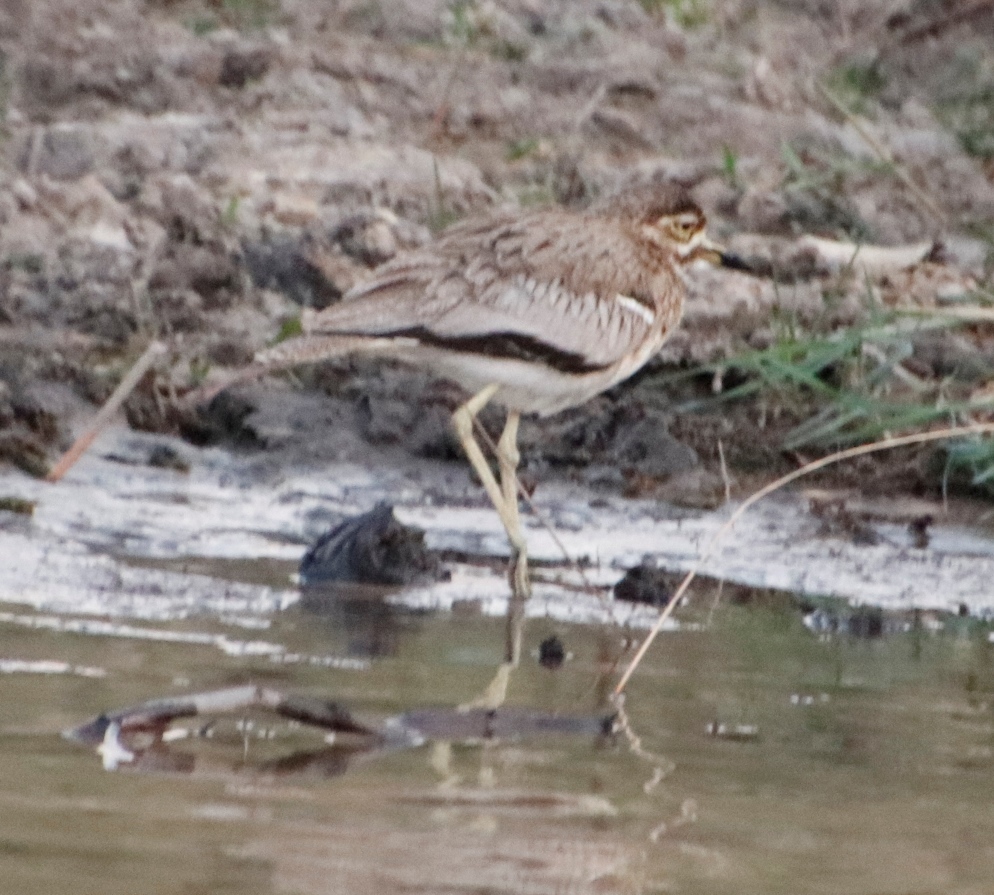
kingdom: Animalia
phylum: Chordata
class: Aves
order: Charadriiformes
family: Burhinidae
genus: Burhinus
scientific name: Burhinus vermiculatus
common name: Water thick-knee
